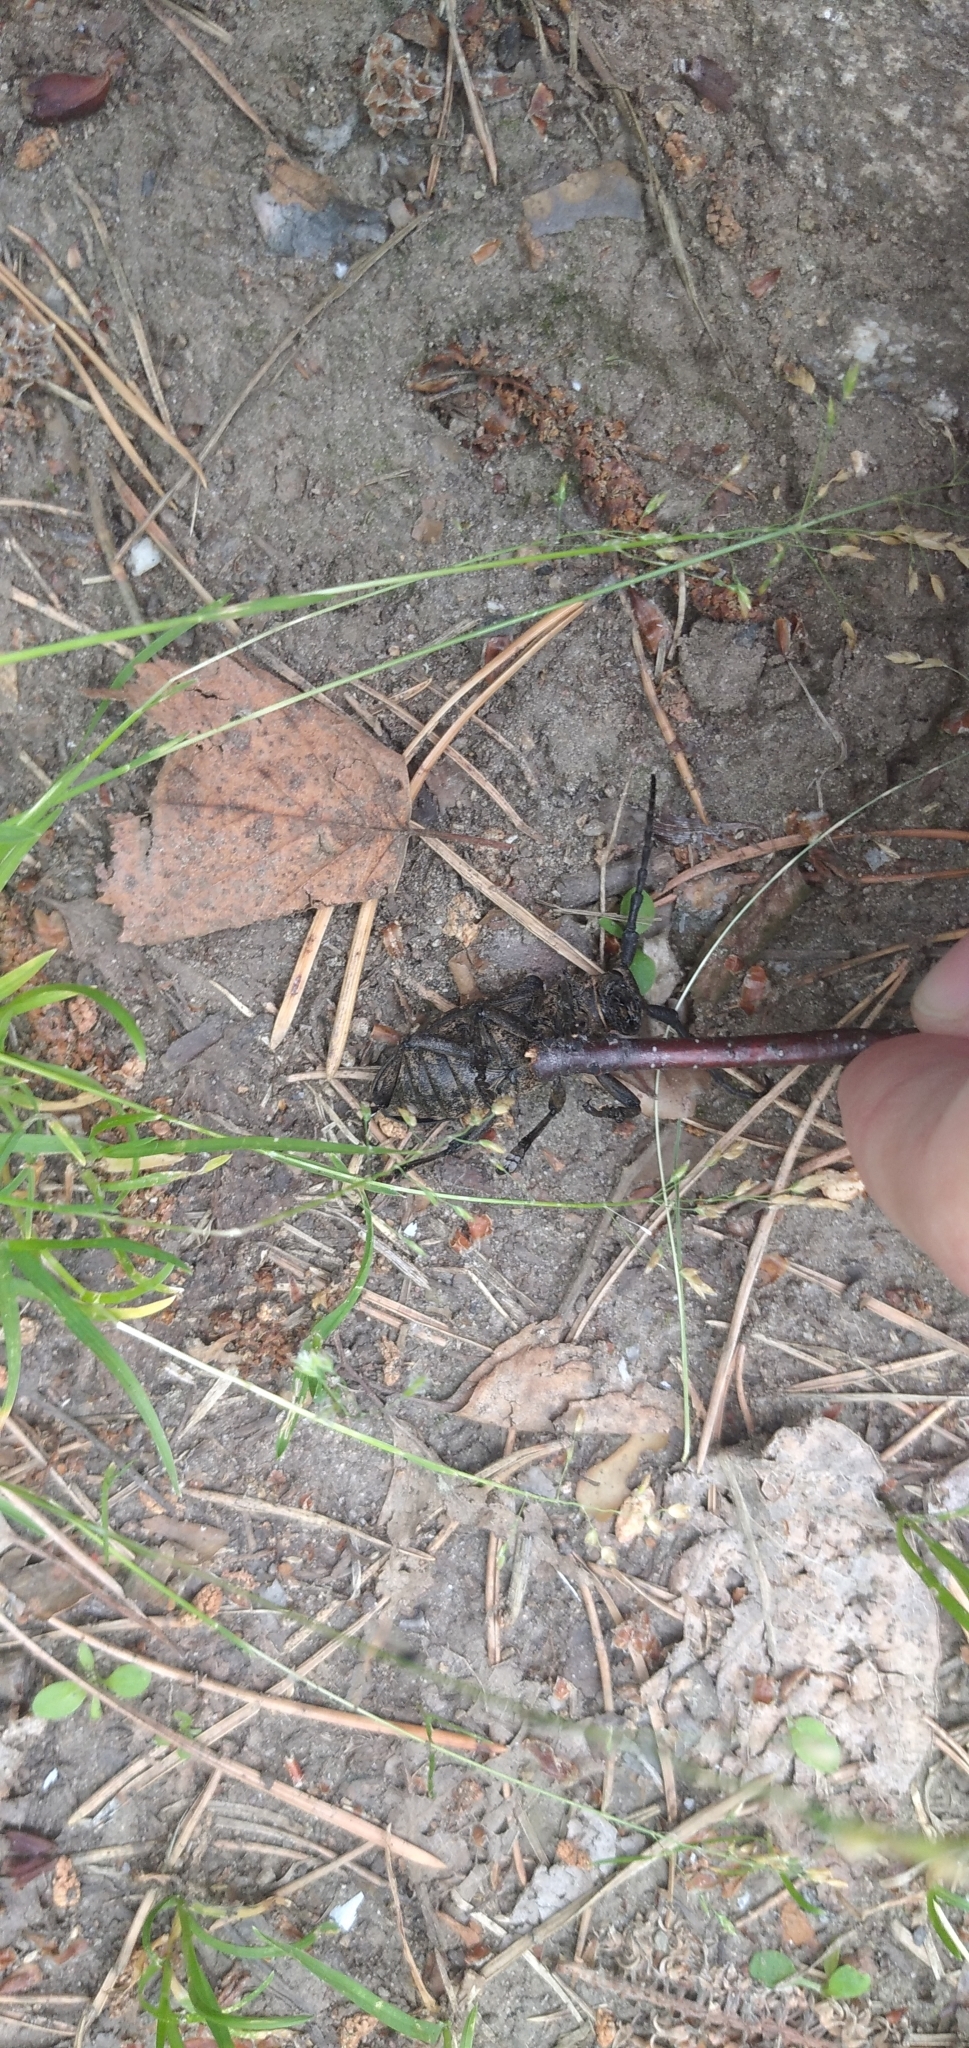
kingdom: Animalia
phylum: Arthropoda
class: Insecta
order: Coleoptera
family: Cerambycidae
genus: Lamia
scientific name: Lamia textor
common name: Weaver beetle
